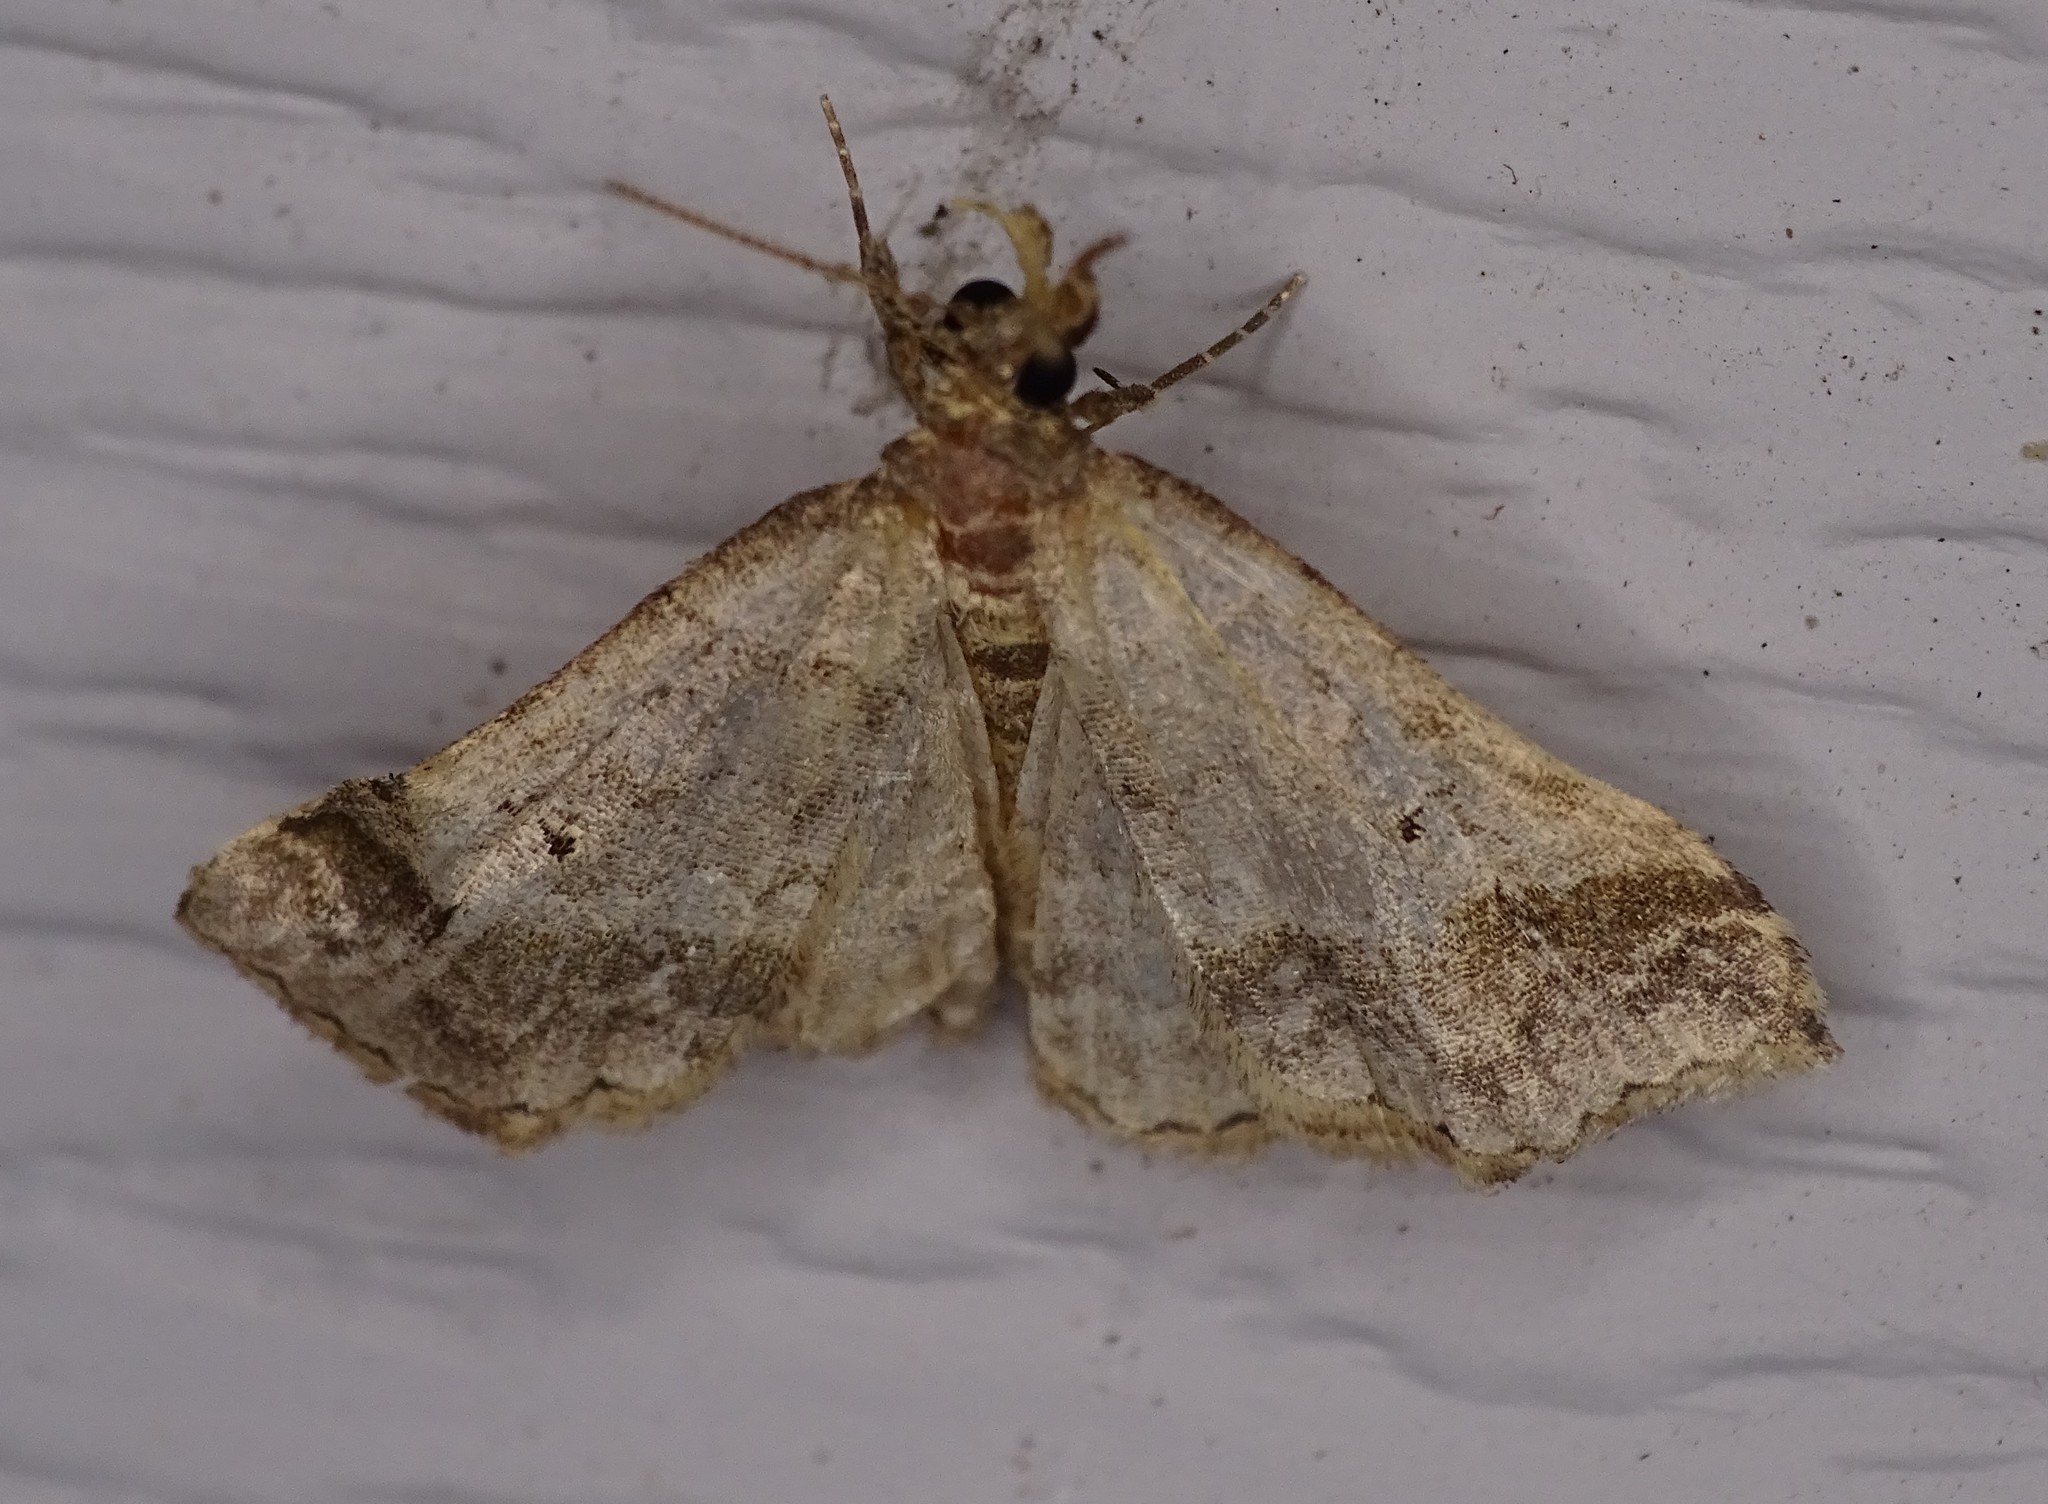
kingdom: Animalia
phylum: Arthropoda
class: Insecta
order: Lepidoptera
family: Erebidae
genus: Phaeolita
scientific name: Phaeolita pyramusalis
